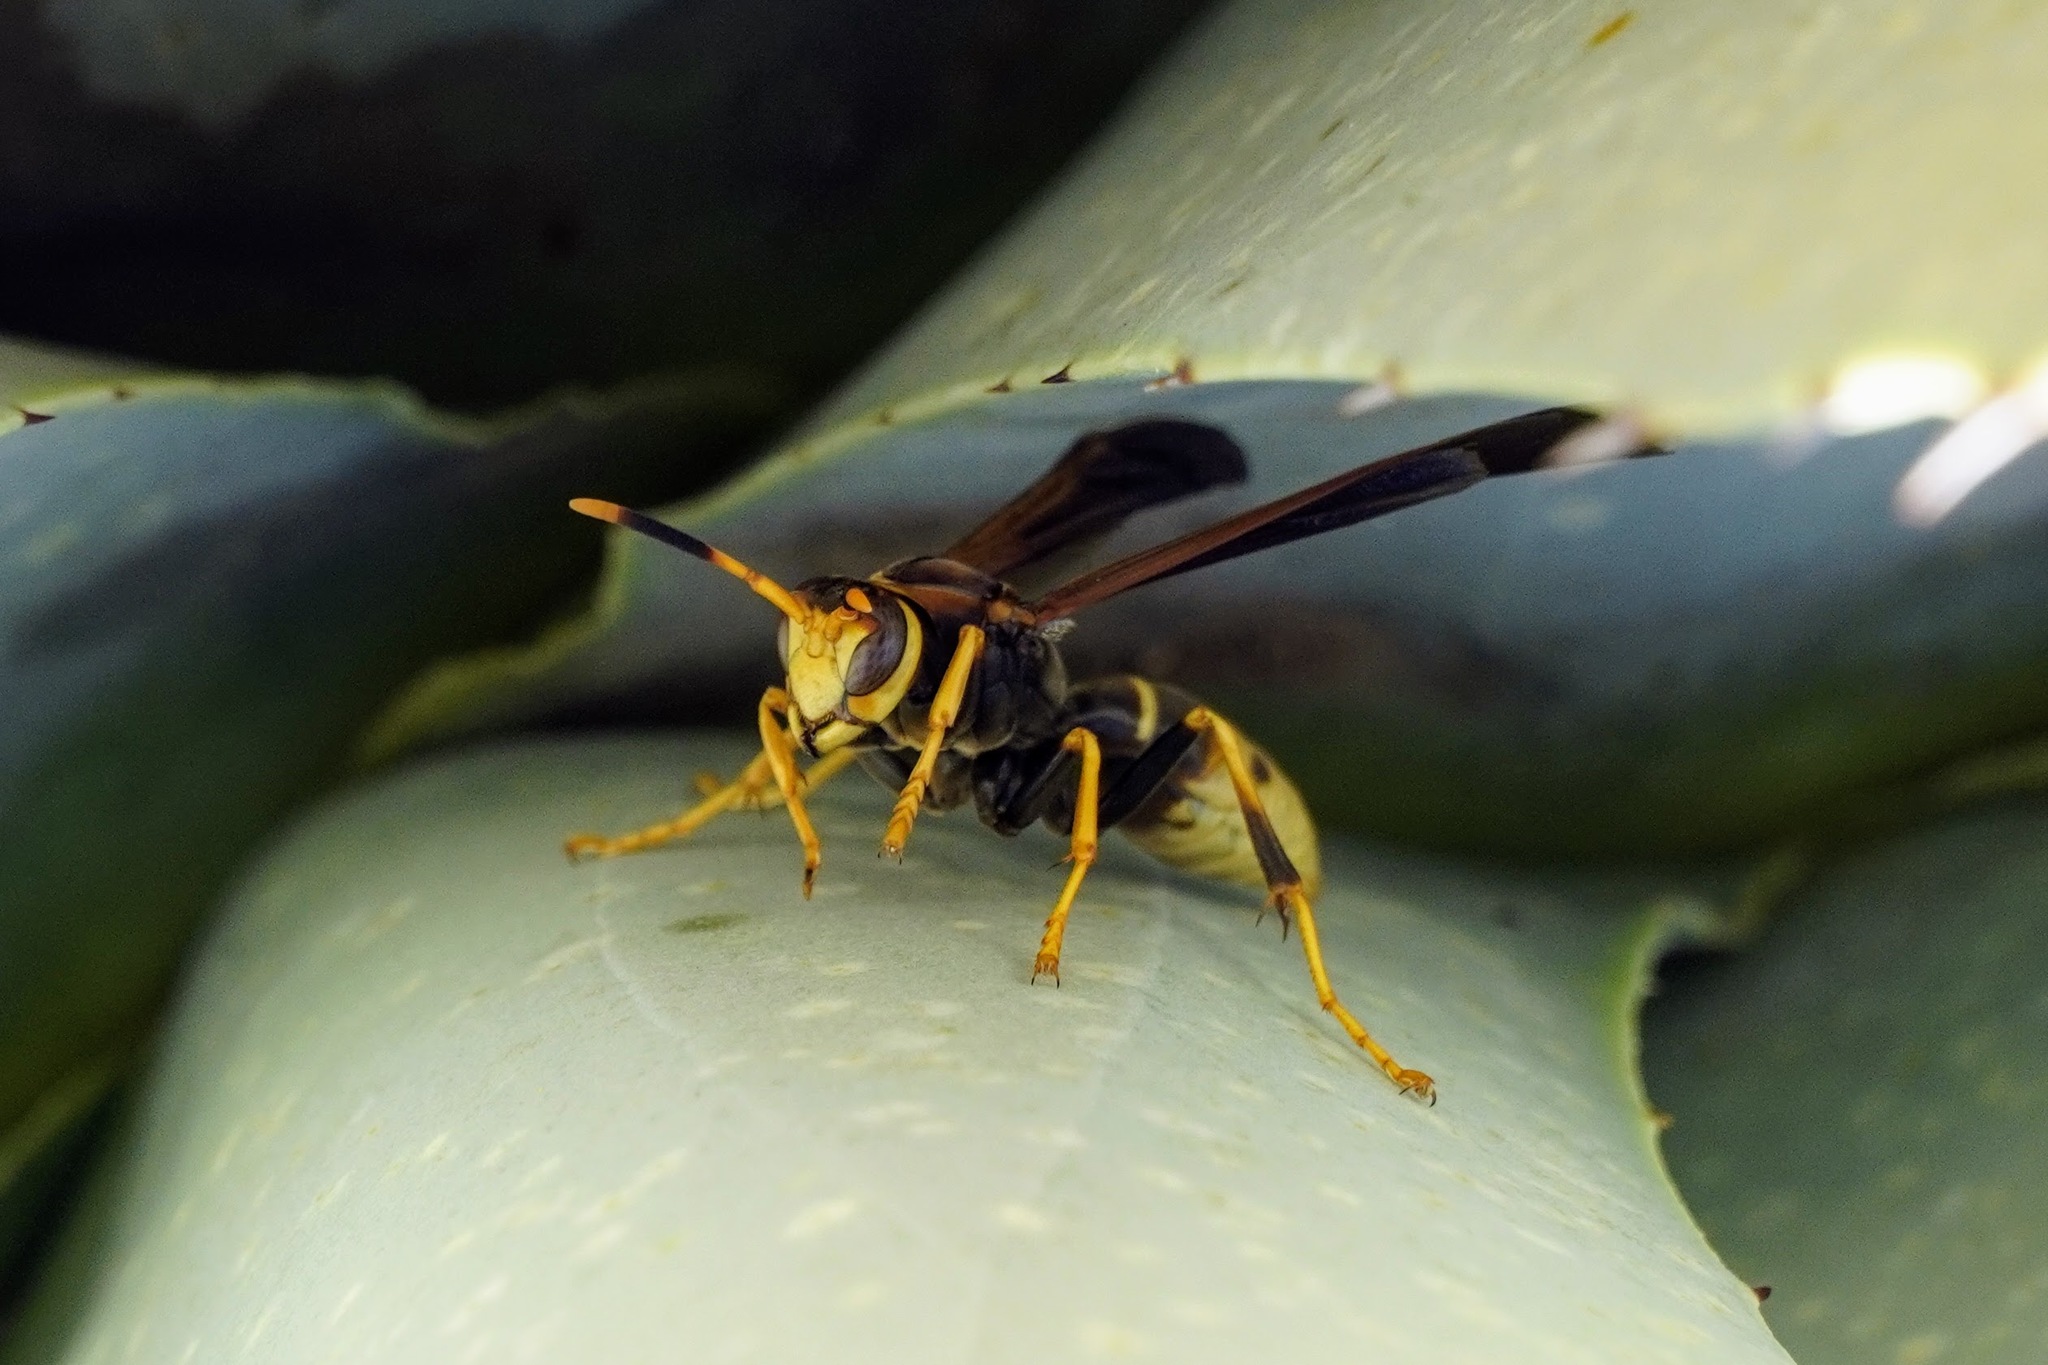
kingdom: Animalia
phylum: Arthropoda
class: Insecta
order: Hymenoptera
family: Eumenidae
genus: Polistes
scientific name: Polistes comanchus
